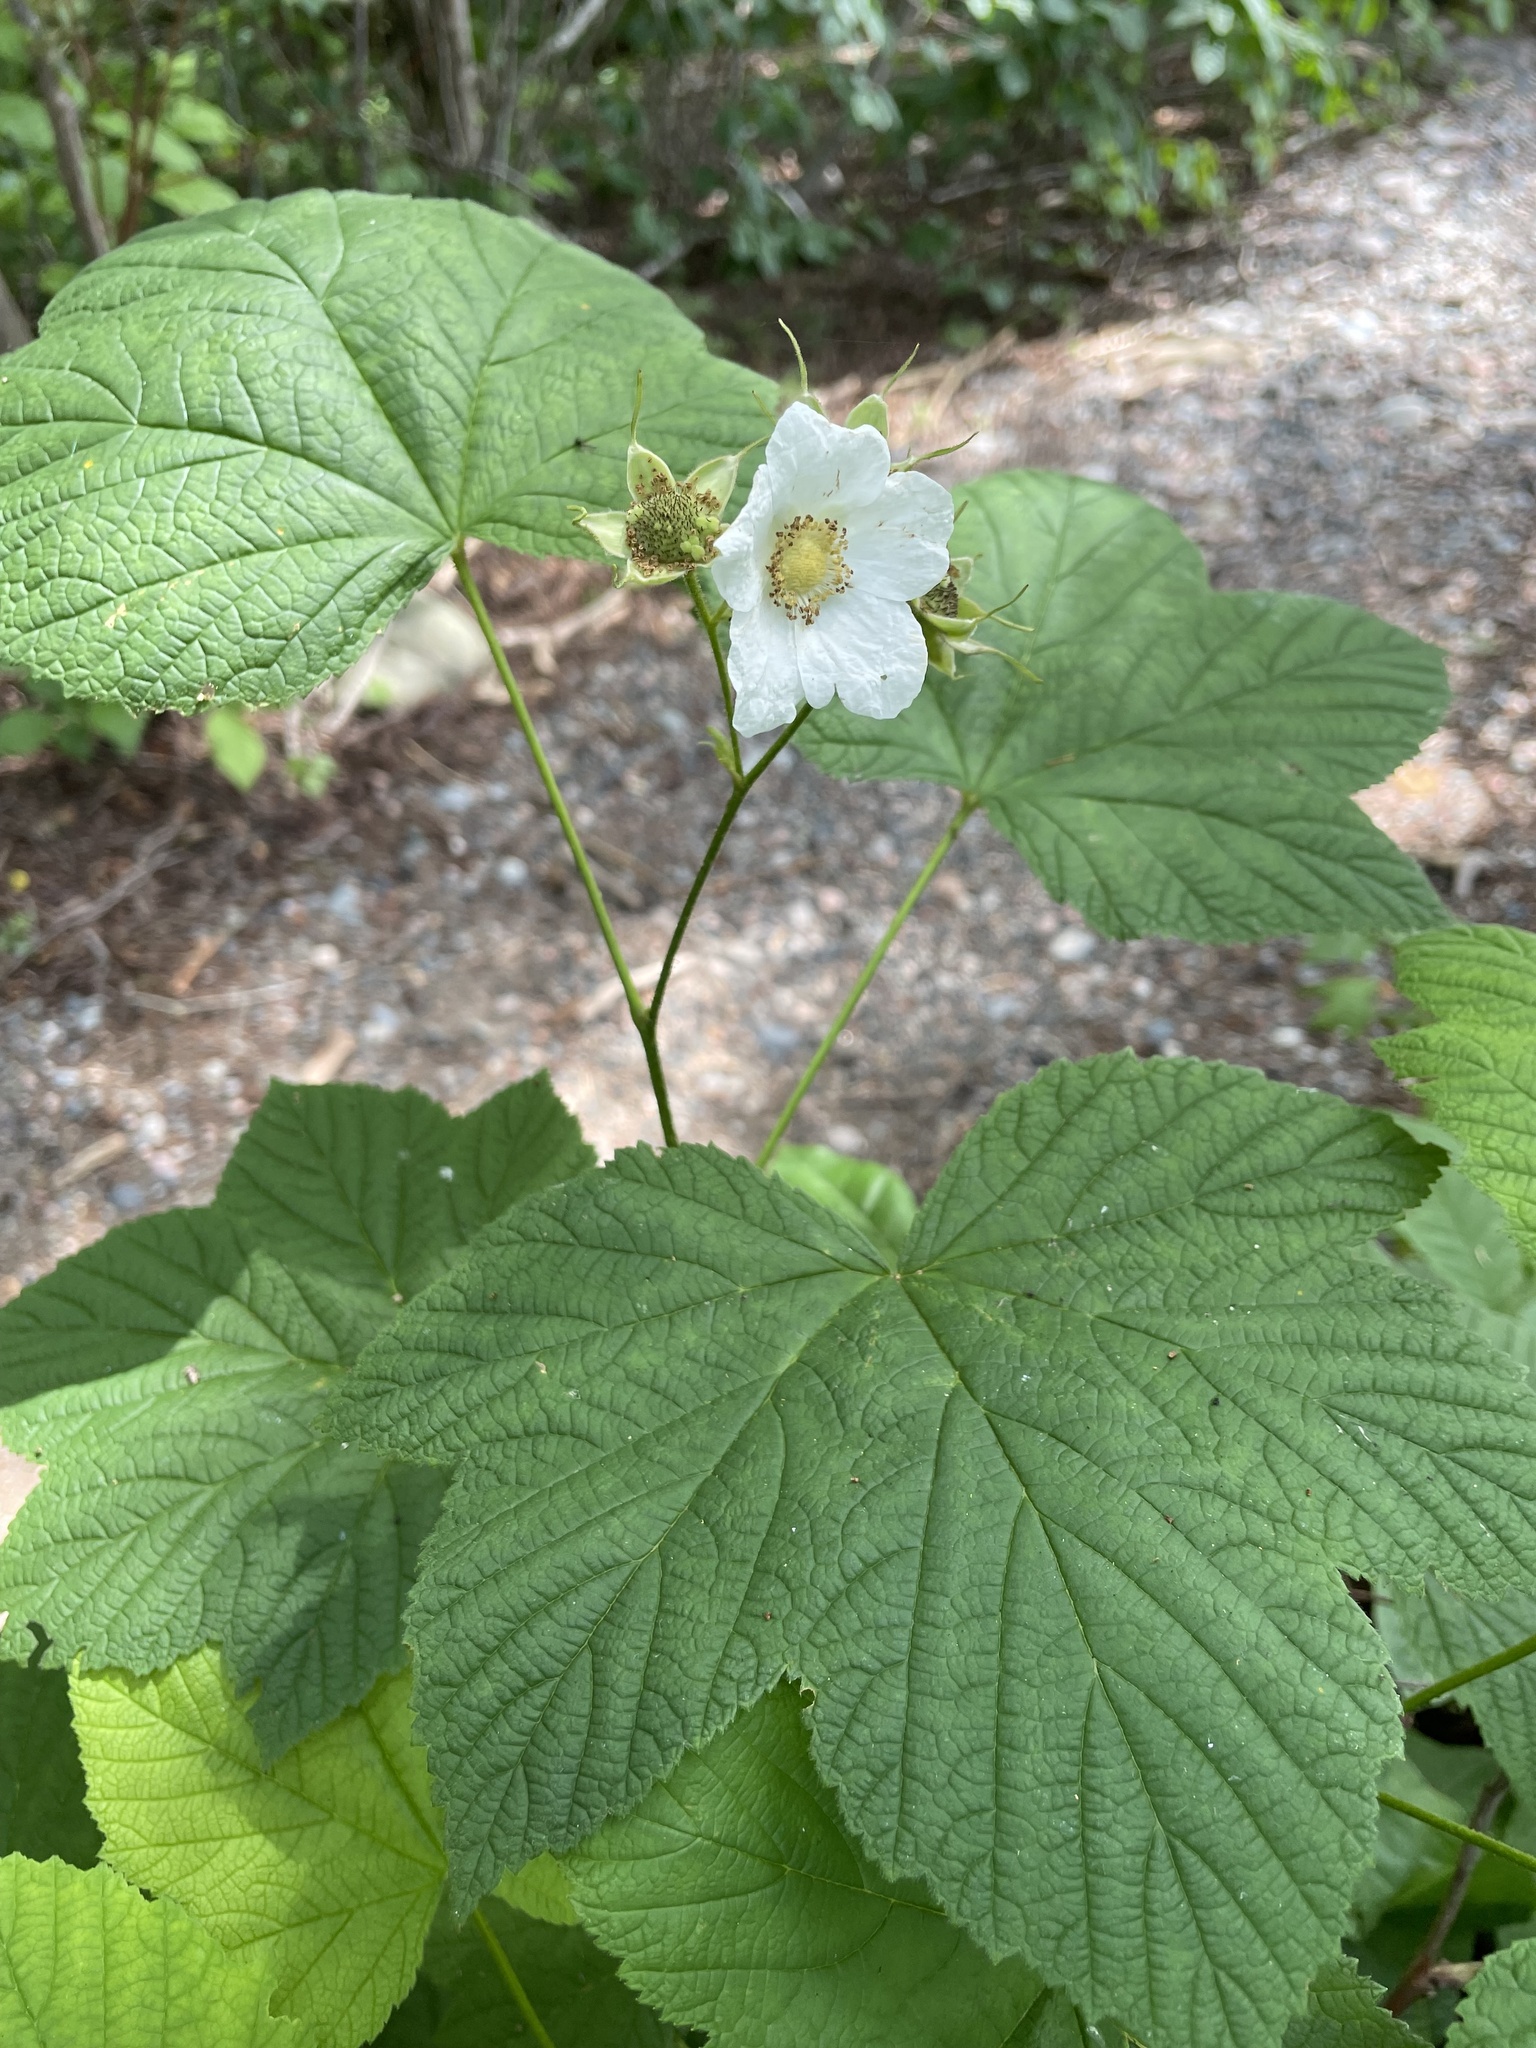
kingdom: Plantae
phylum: Tracheophyta
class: Magnoliopsida
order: Rosales
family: Rosaceae
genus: Rubus
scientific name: Rubus parviflorus
